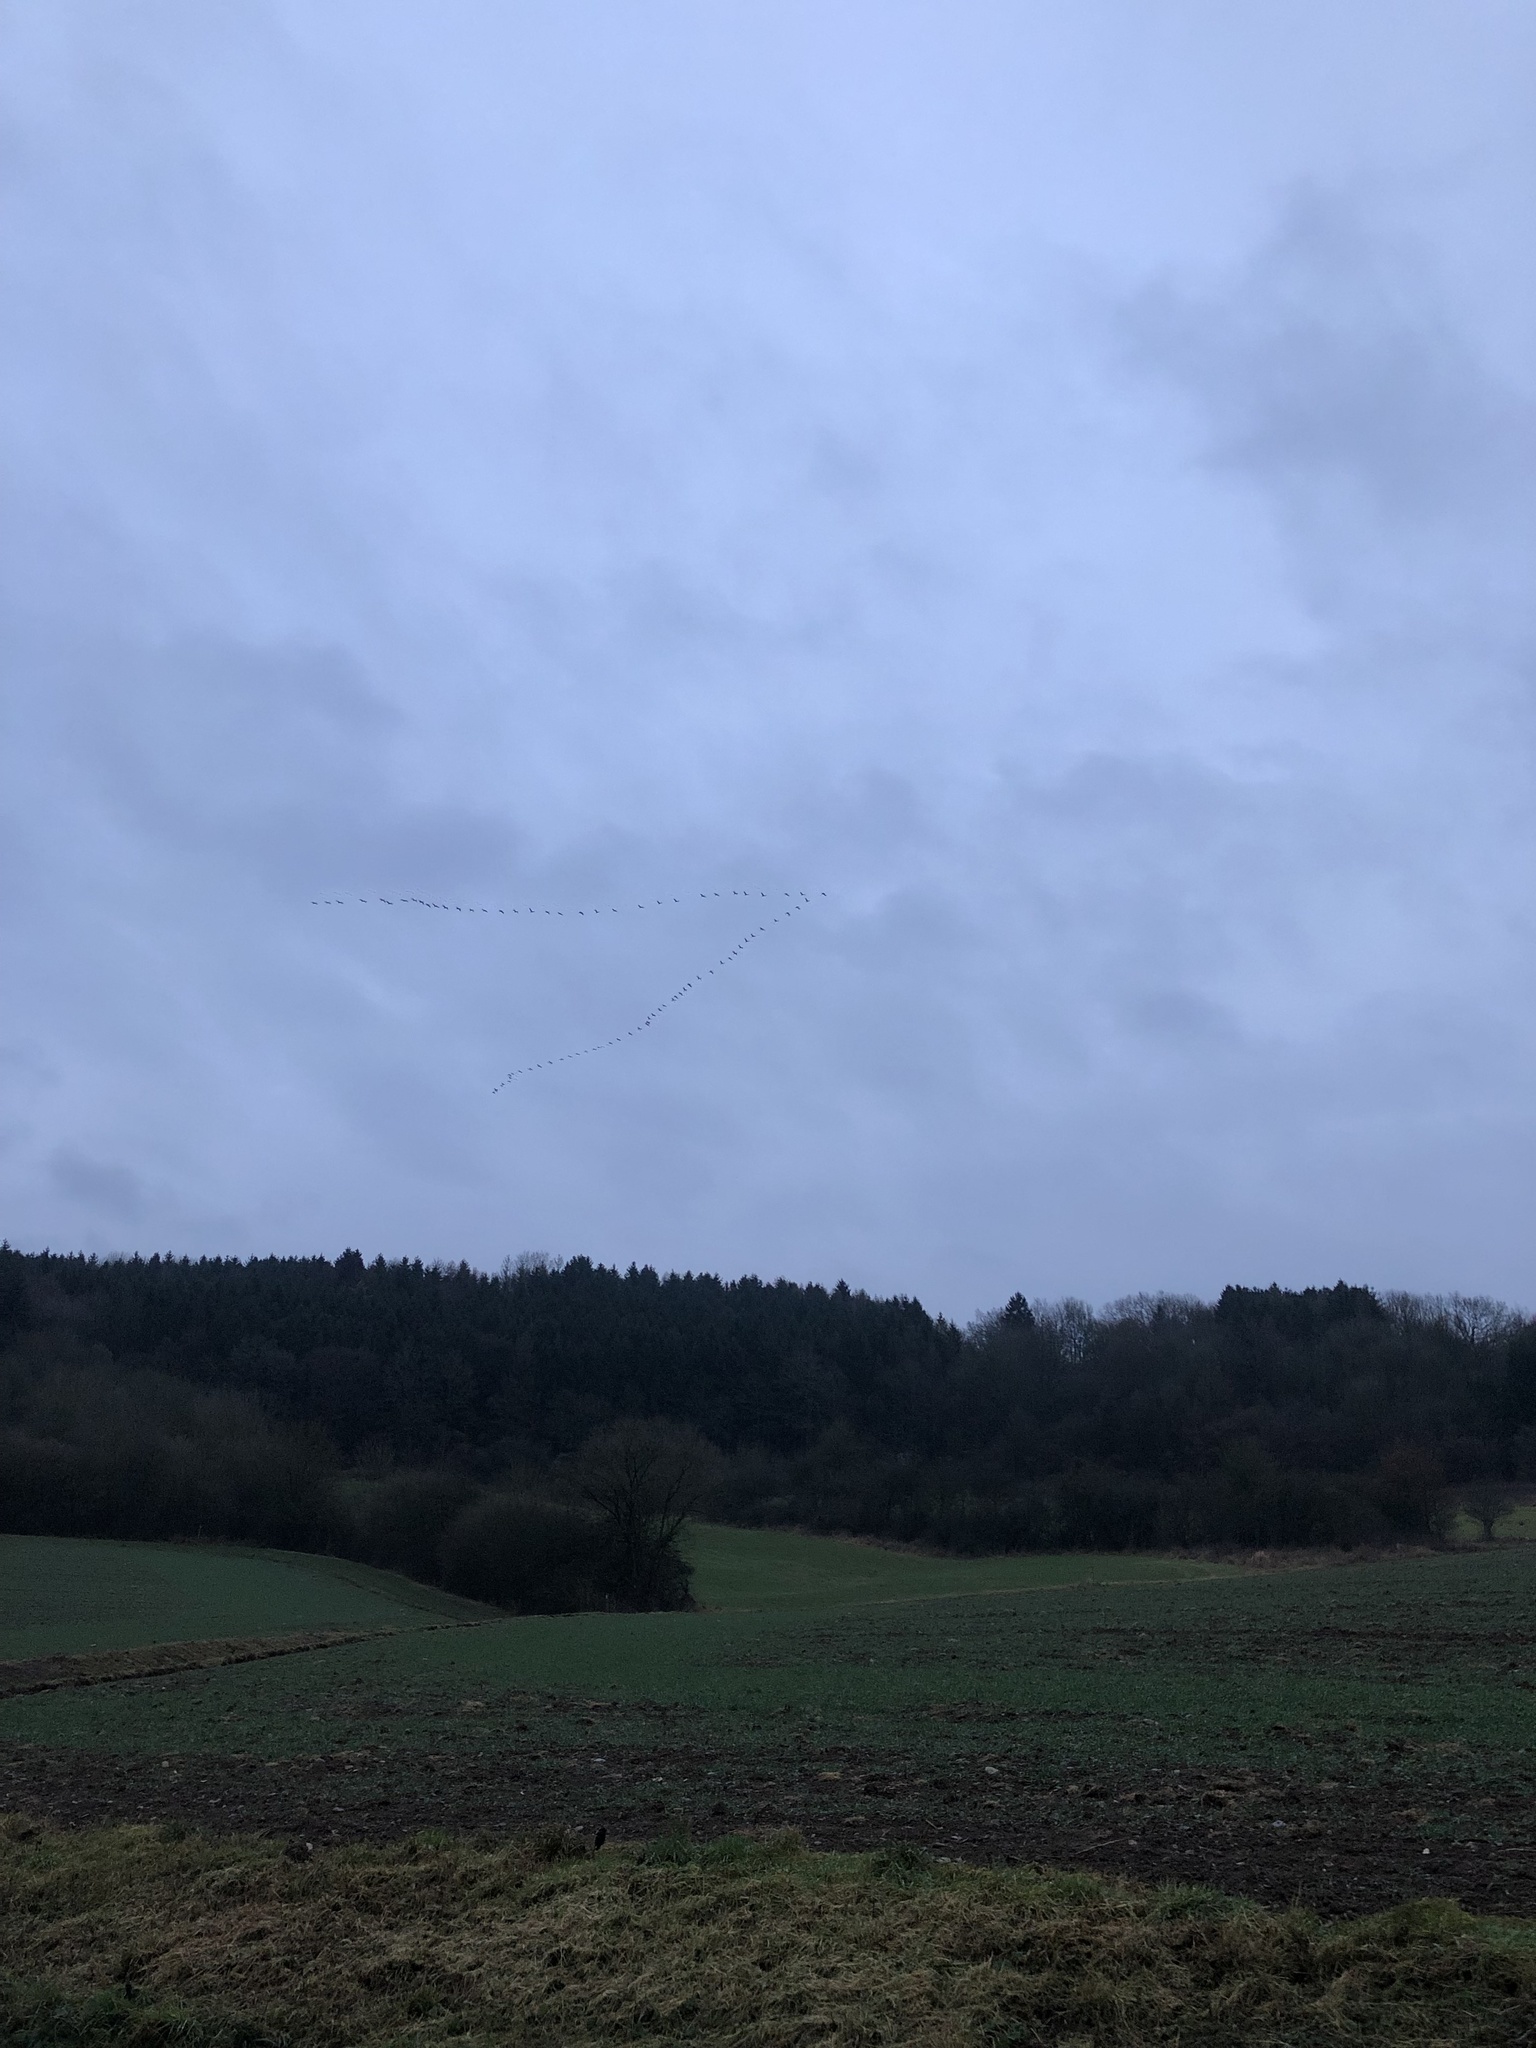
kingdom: Animalia
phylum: Chordata
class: Aves
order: Gruiformes
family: Gruidae
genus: Grus
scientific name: Grus grus
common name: Common crane
